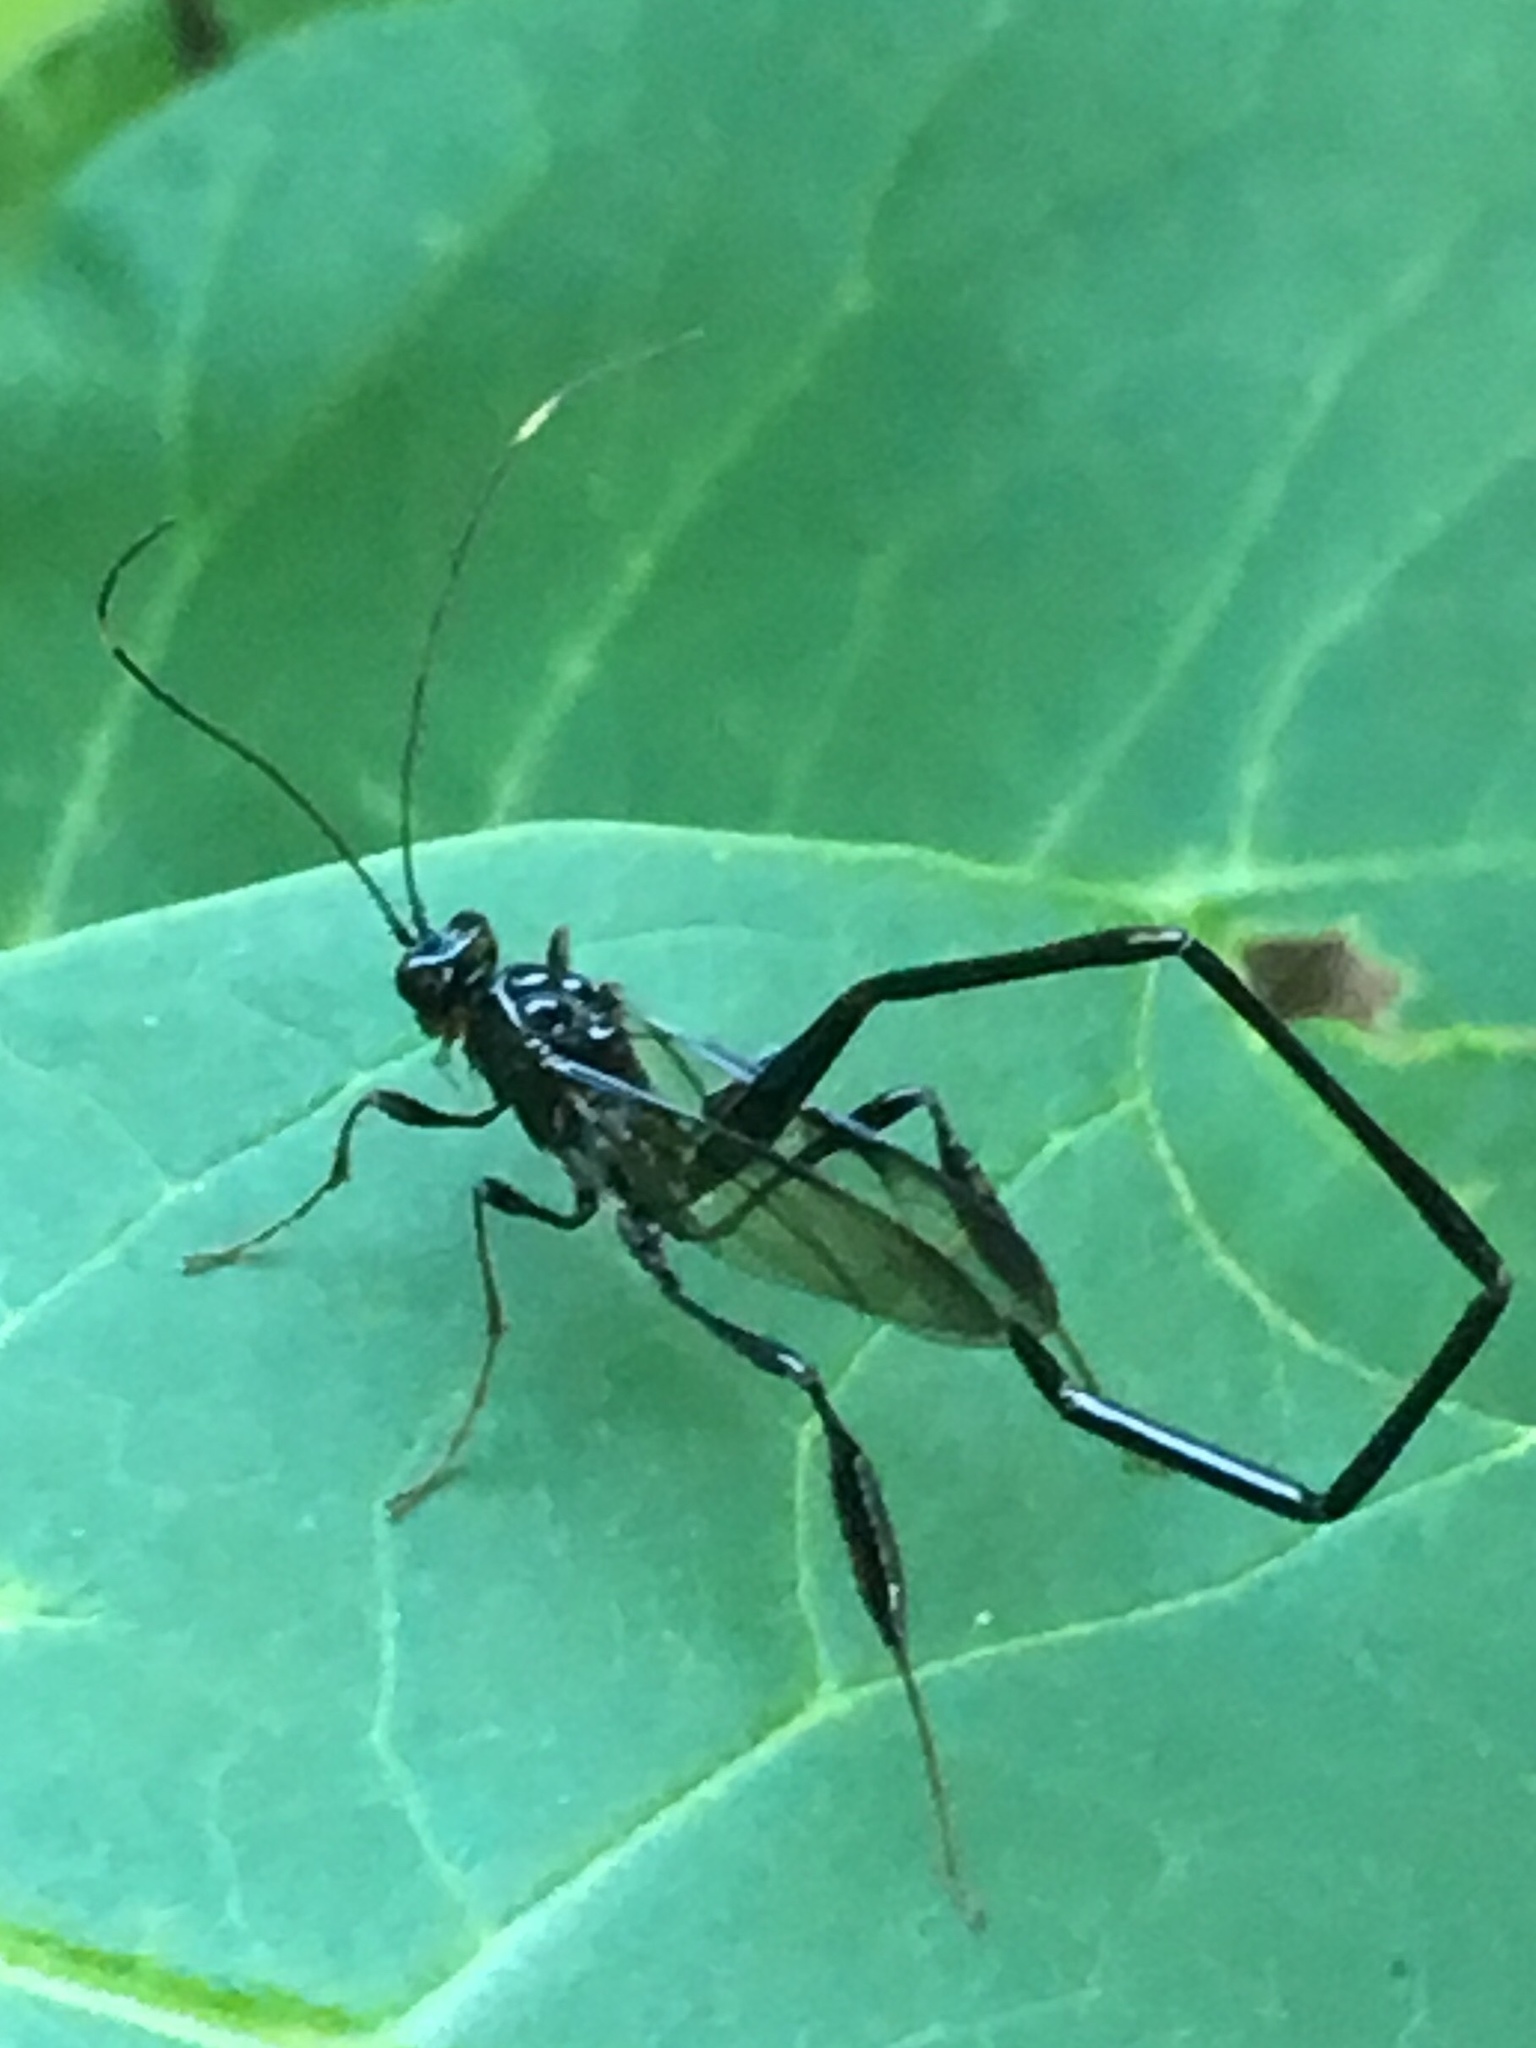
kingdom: Animalia
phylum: Arthropoda
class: Insecta
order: Hymenoptera
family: Pelecinidae
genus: Pelecinus
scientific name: Pelecinus polyturator
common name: American pelecinid wasp
